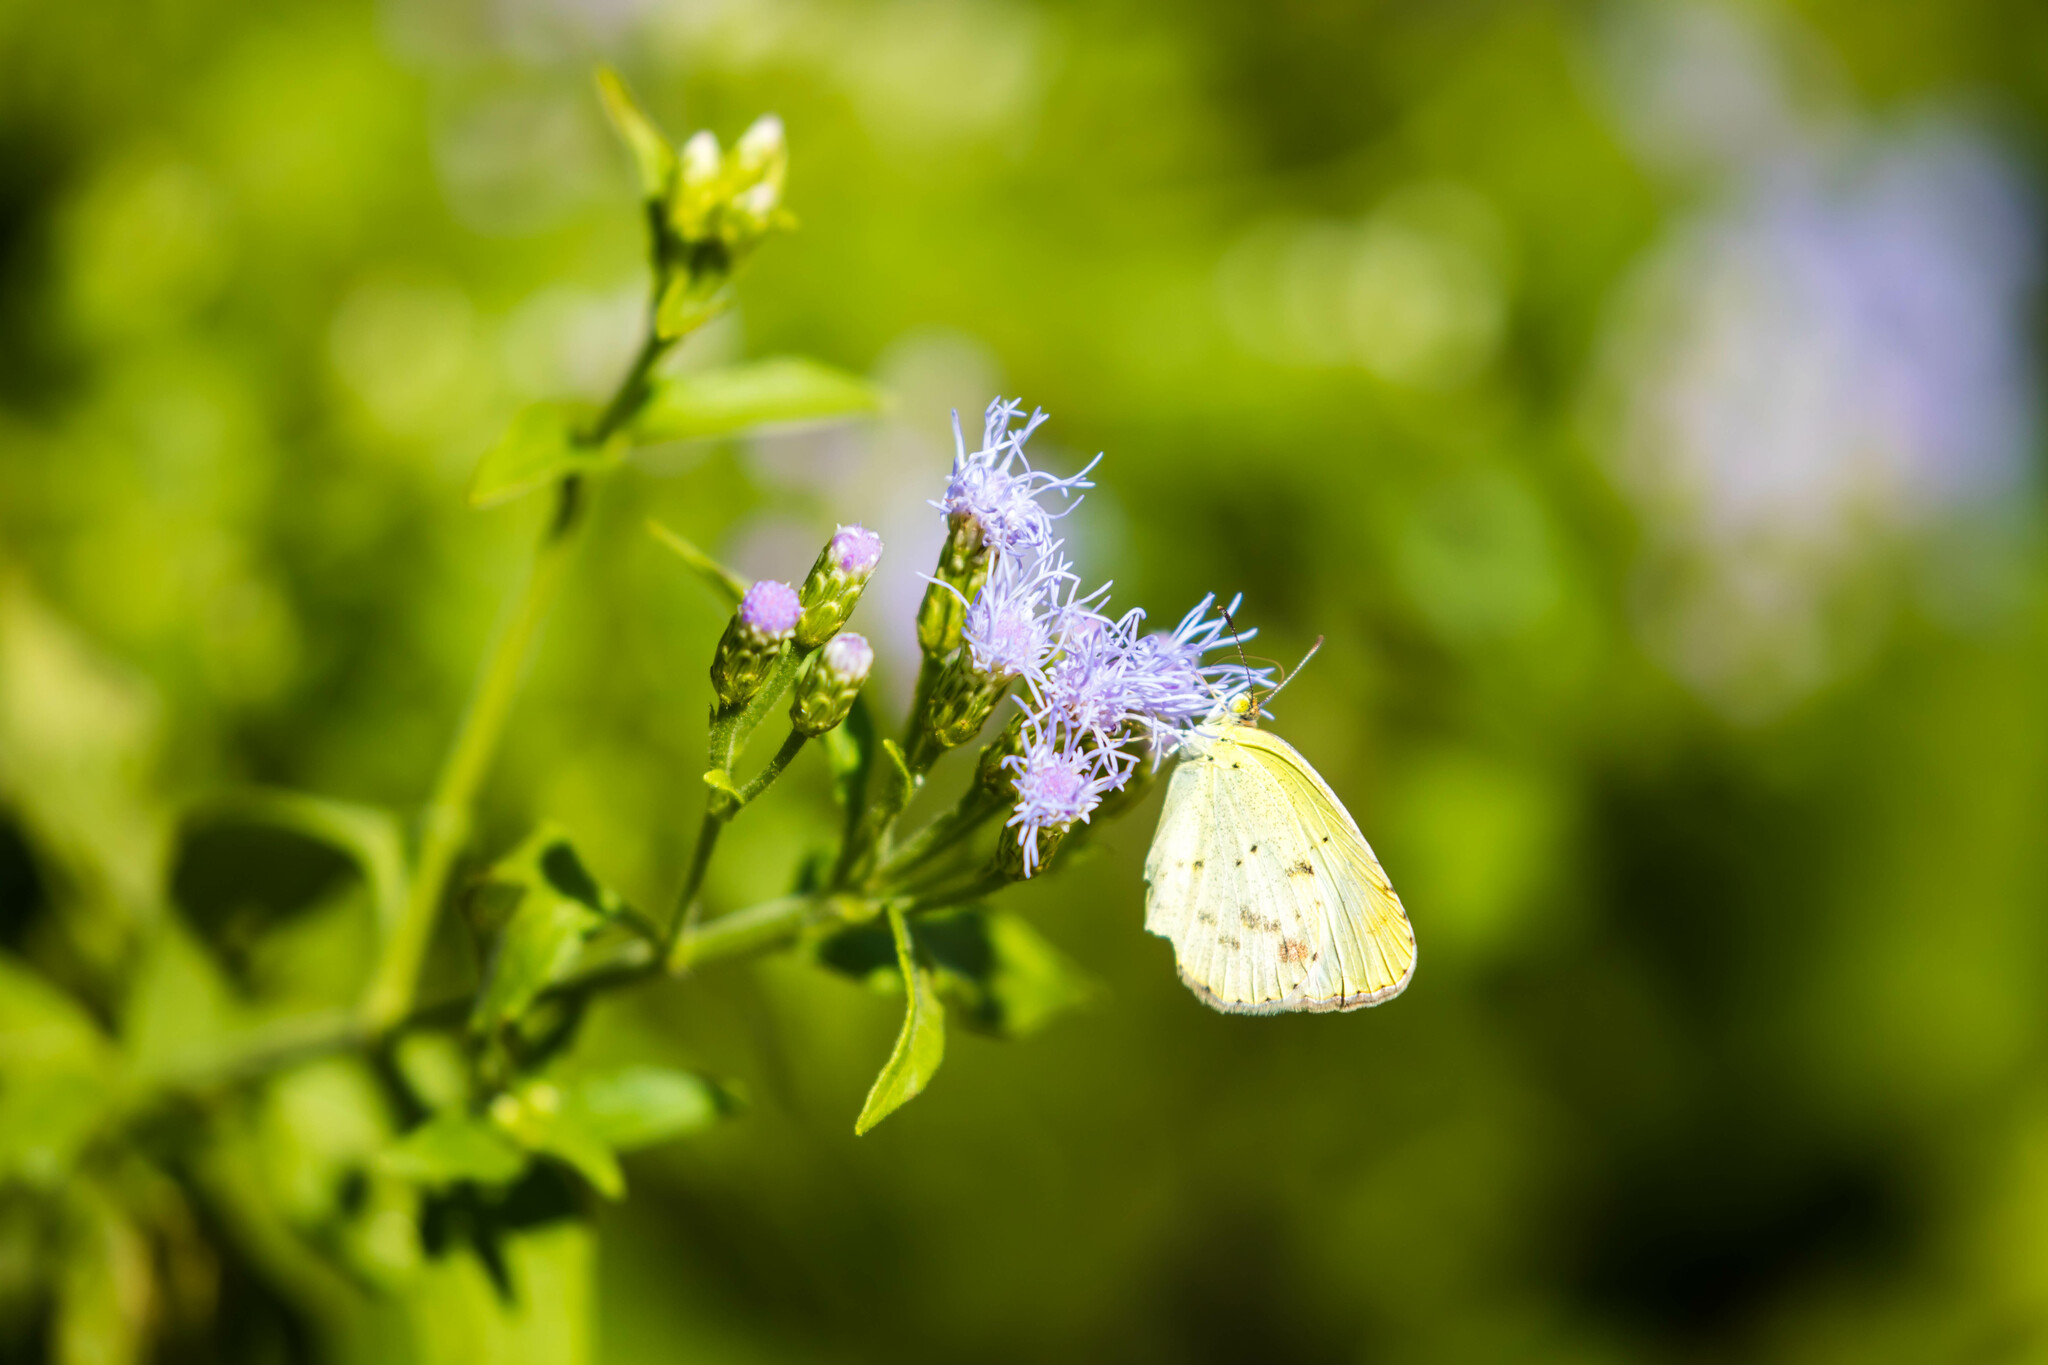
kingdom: Animalia
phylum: Arthropoda
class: Insecta
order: Lepidoptera
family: Pieridae
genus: Pyrisitia
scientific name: Pyrisitia lisa
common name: Little yellow
